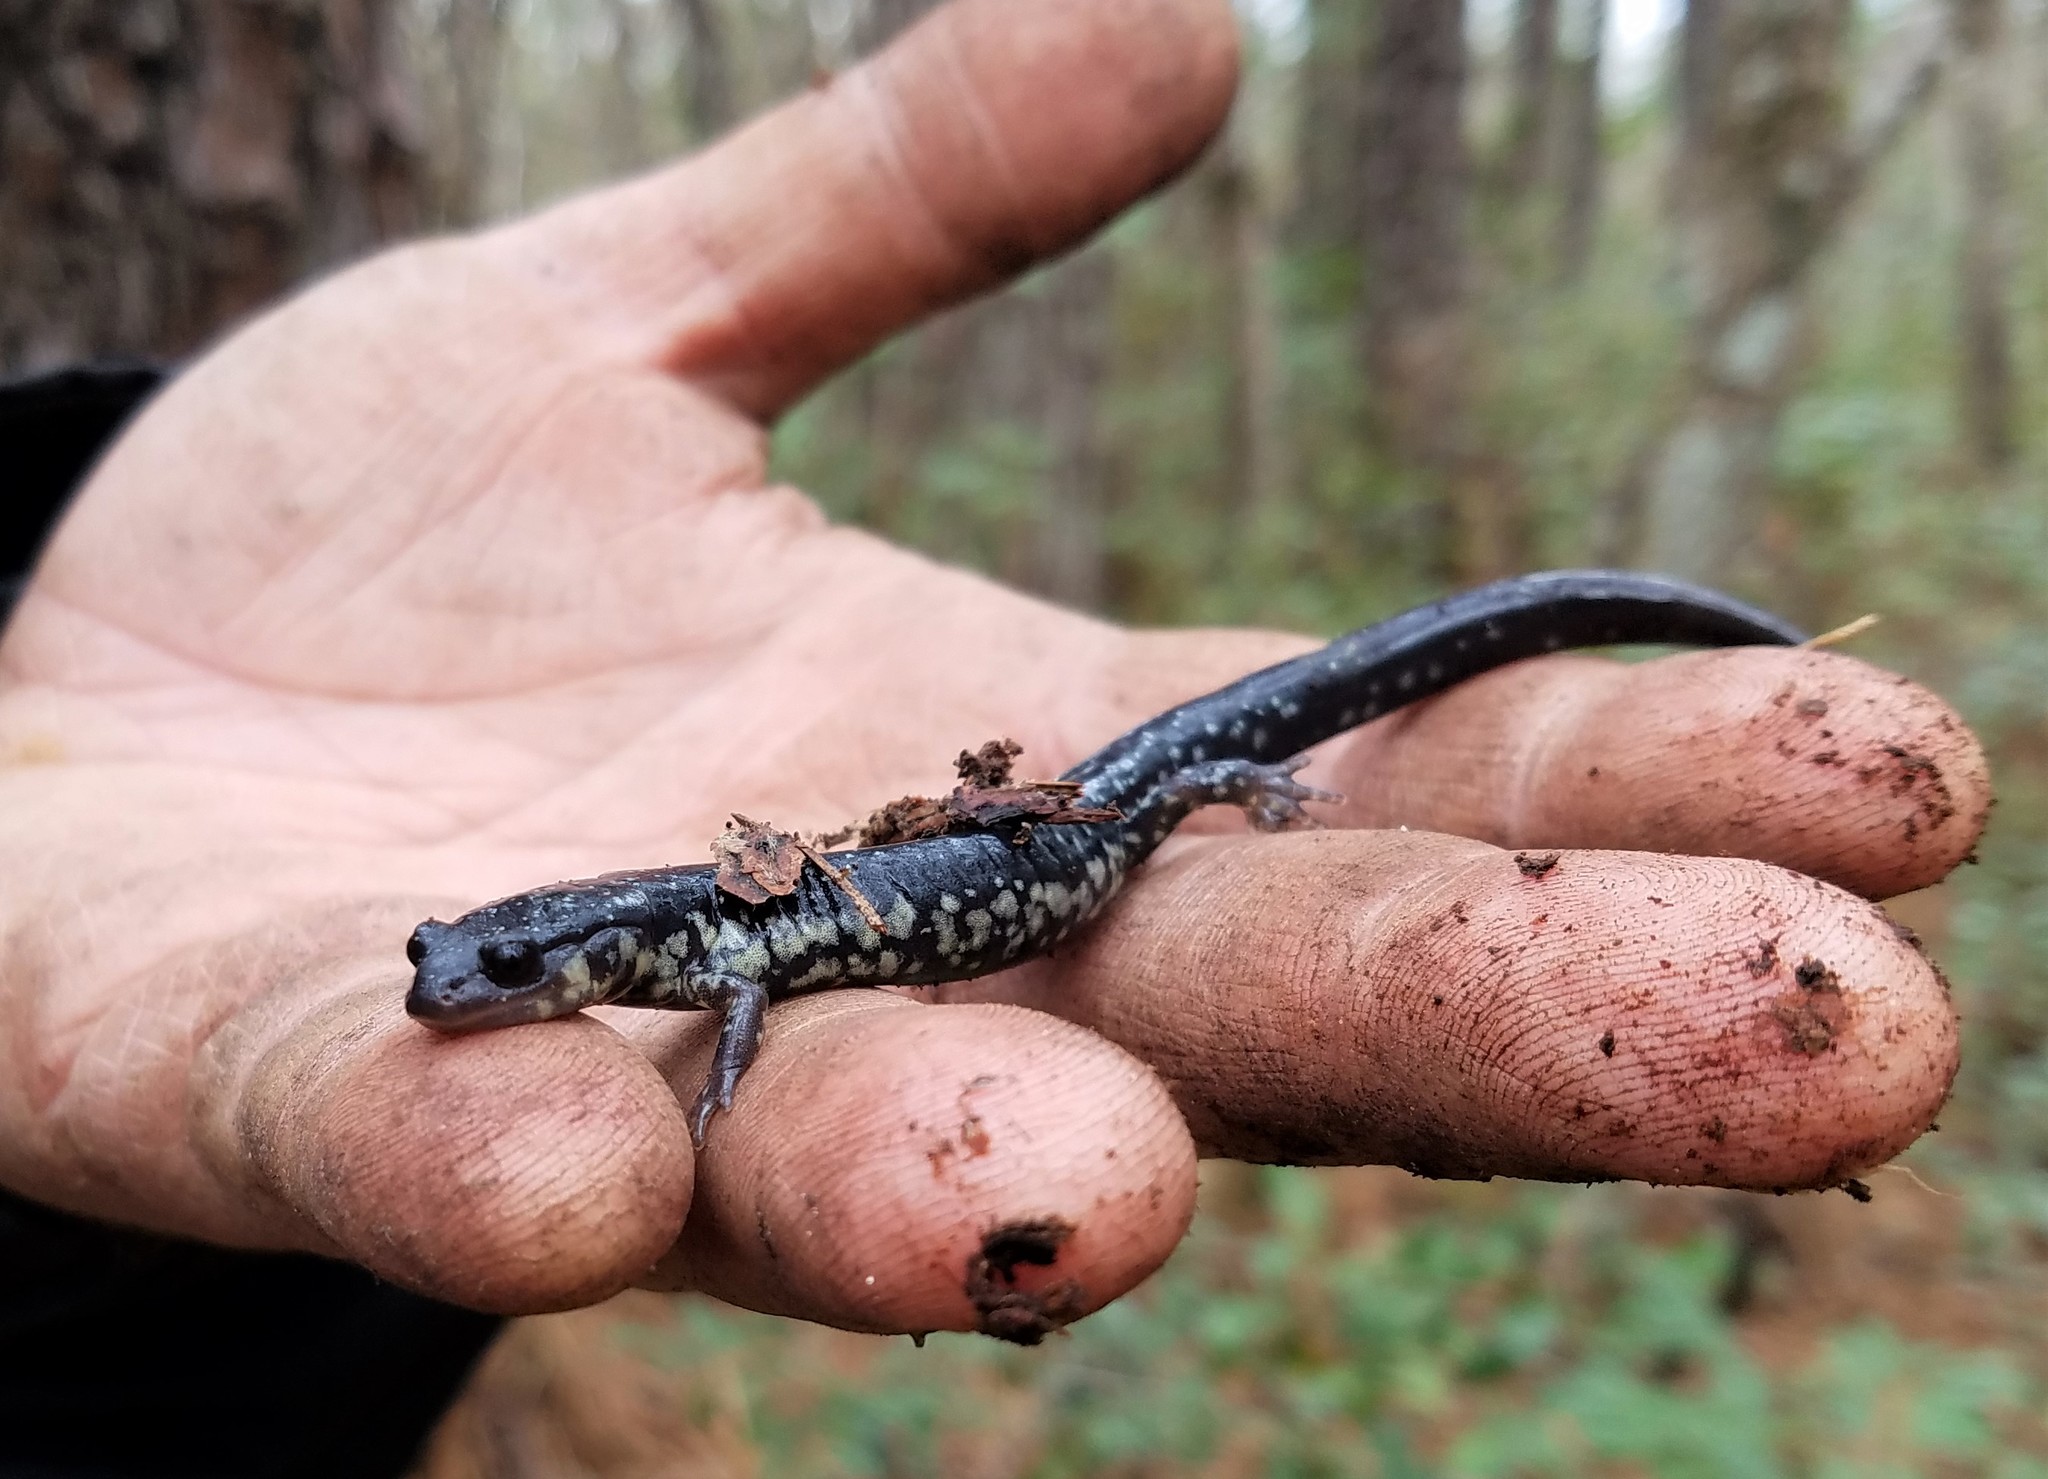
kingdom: Animalia
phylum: Chordata
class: Amphibia
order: Caudata
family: Plethodontidae
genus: Plethodon
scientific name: Plethodon chlorobryonis
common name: Atlantic coast slimy salamander
